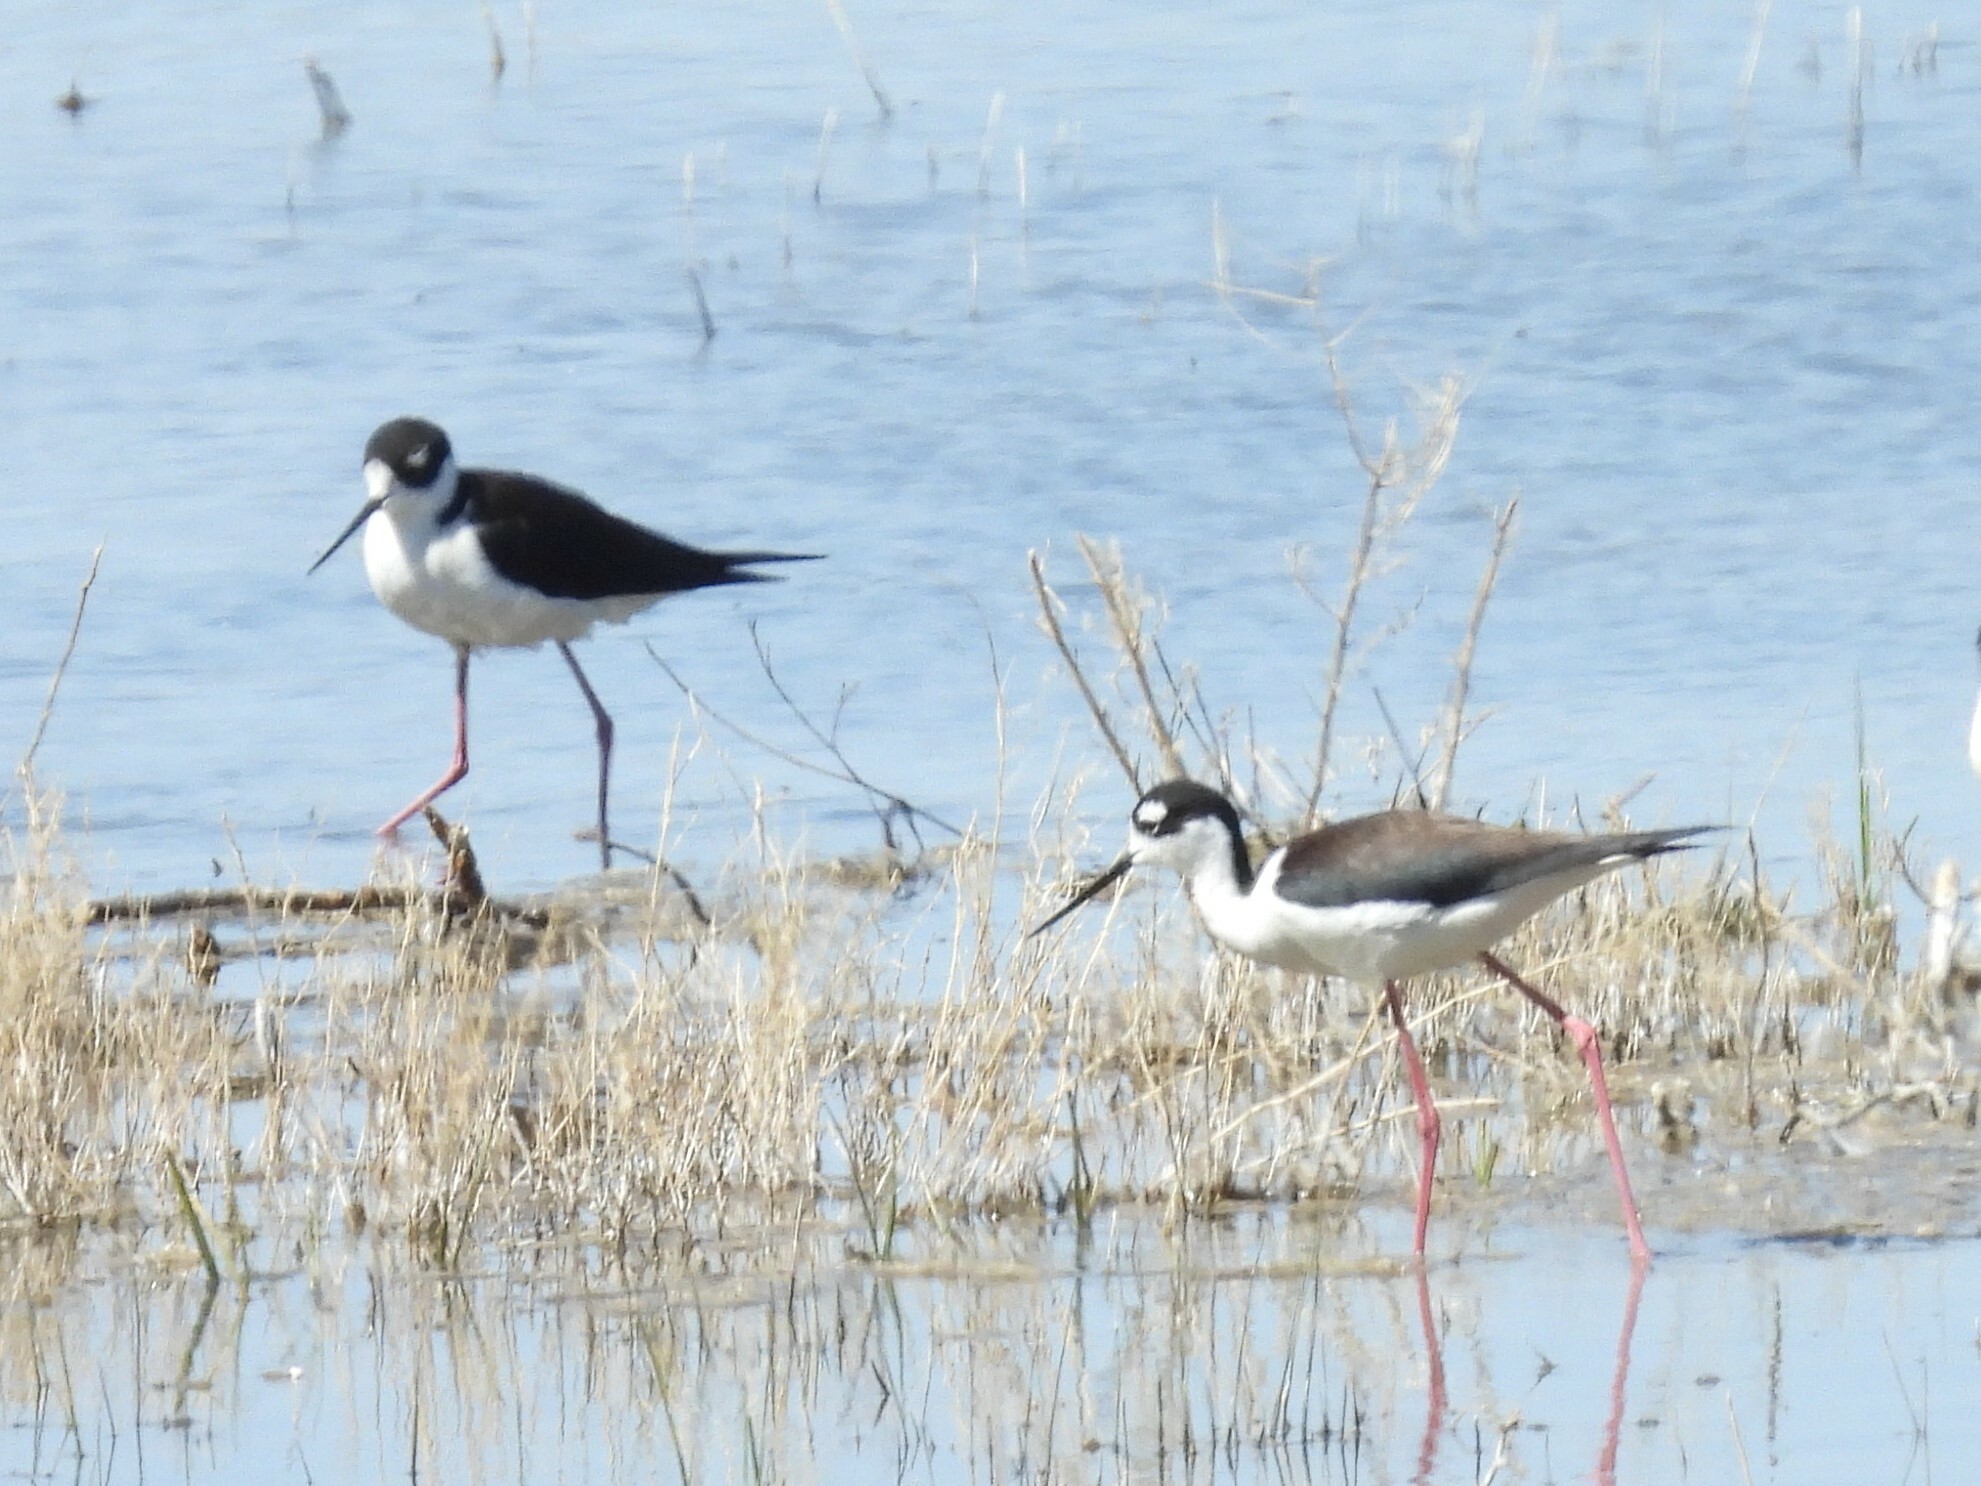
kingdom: Animalia
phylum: Chordata
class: Aves
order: Charadriiformes
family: Recurvirostridae
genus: Himantopus
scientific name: Himantopus mexicanus
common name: Black-necked stilt
